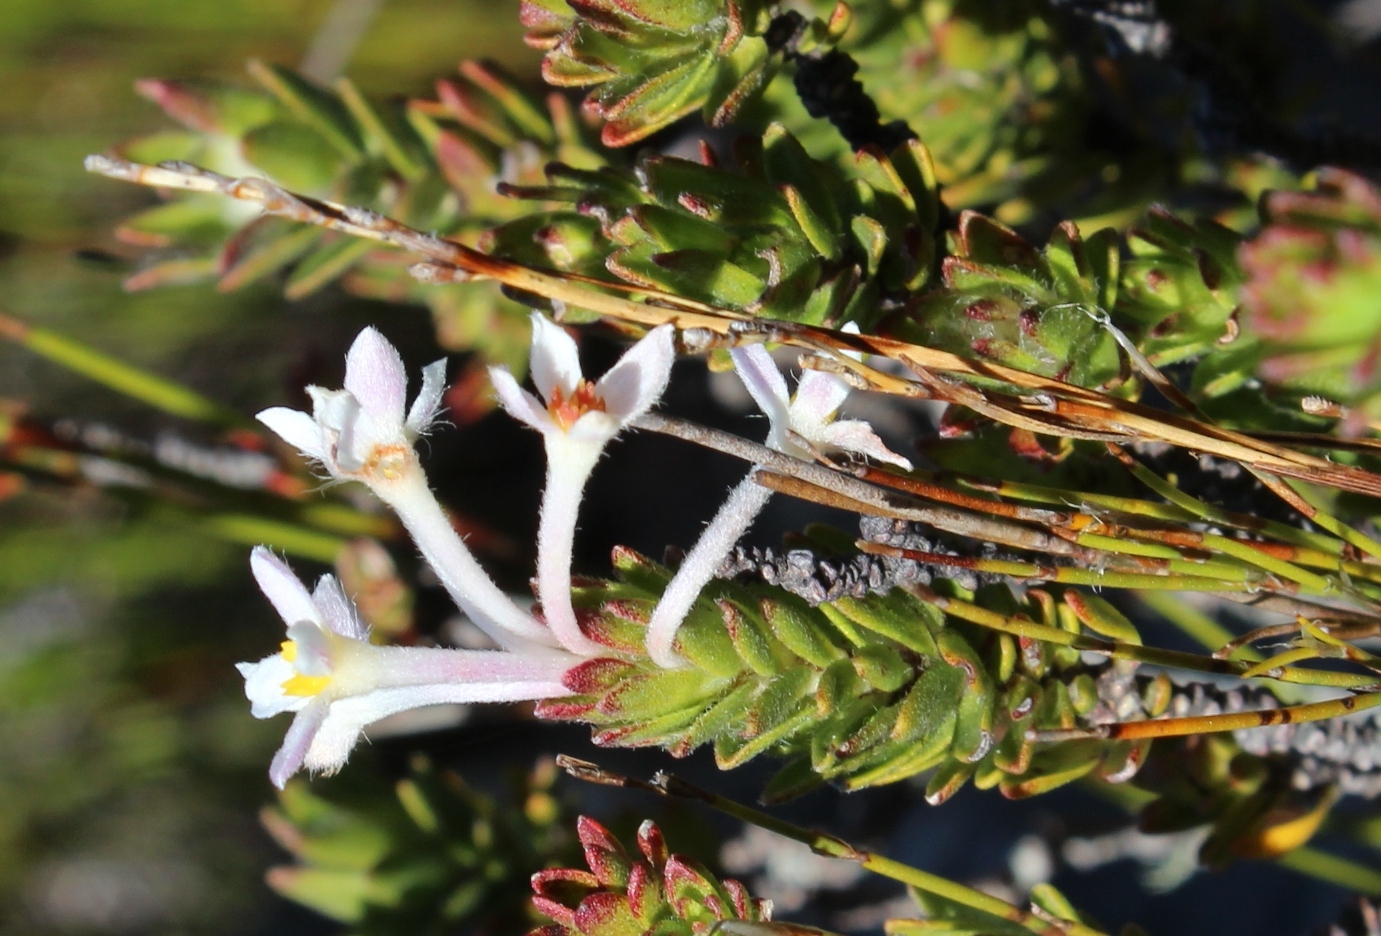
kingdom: Plantae
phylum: Tracheophyta
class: Magnoliopsida
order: Malvales
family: Thymelaeaceae
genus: Gnidia
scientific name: Gnidia tomentosa
